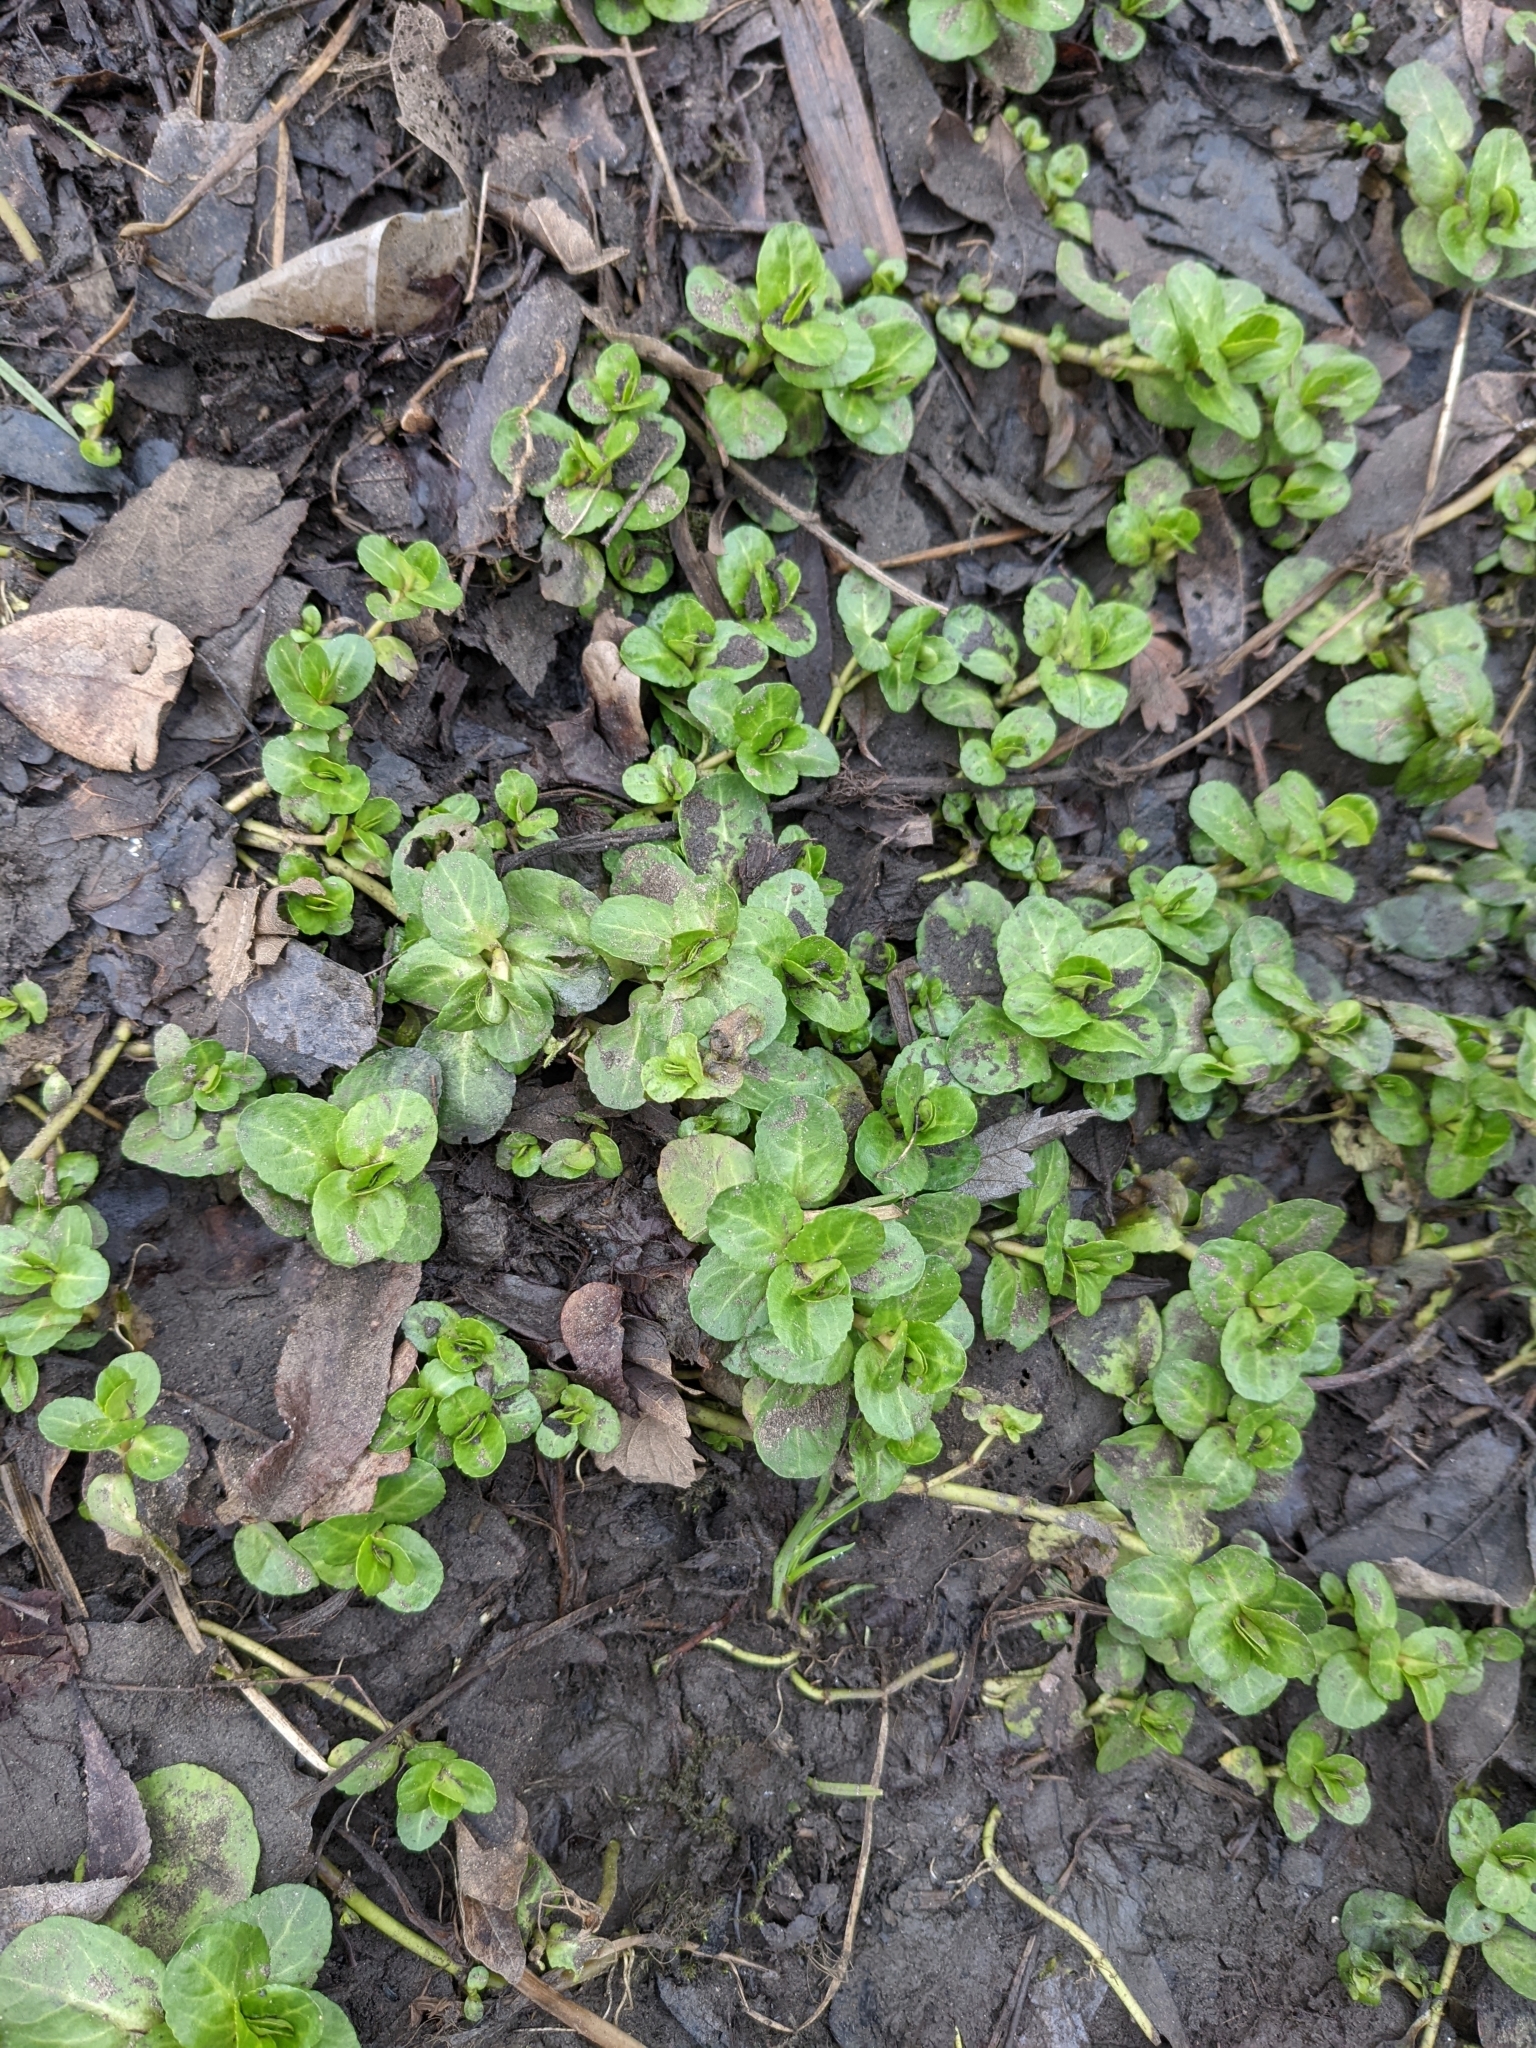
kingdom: Plantae
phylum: Tracheophyta
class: Magnoliopsida
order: Lamiales
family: Plantaginaceae
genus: Veronica
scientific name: Veronica beccabunga
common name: Brooklime
